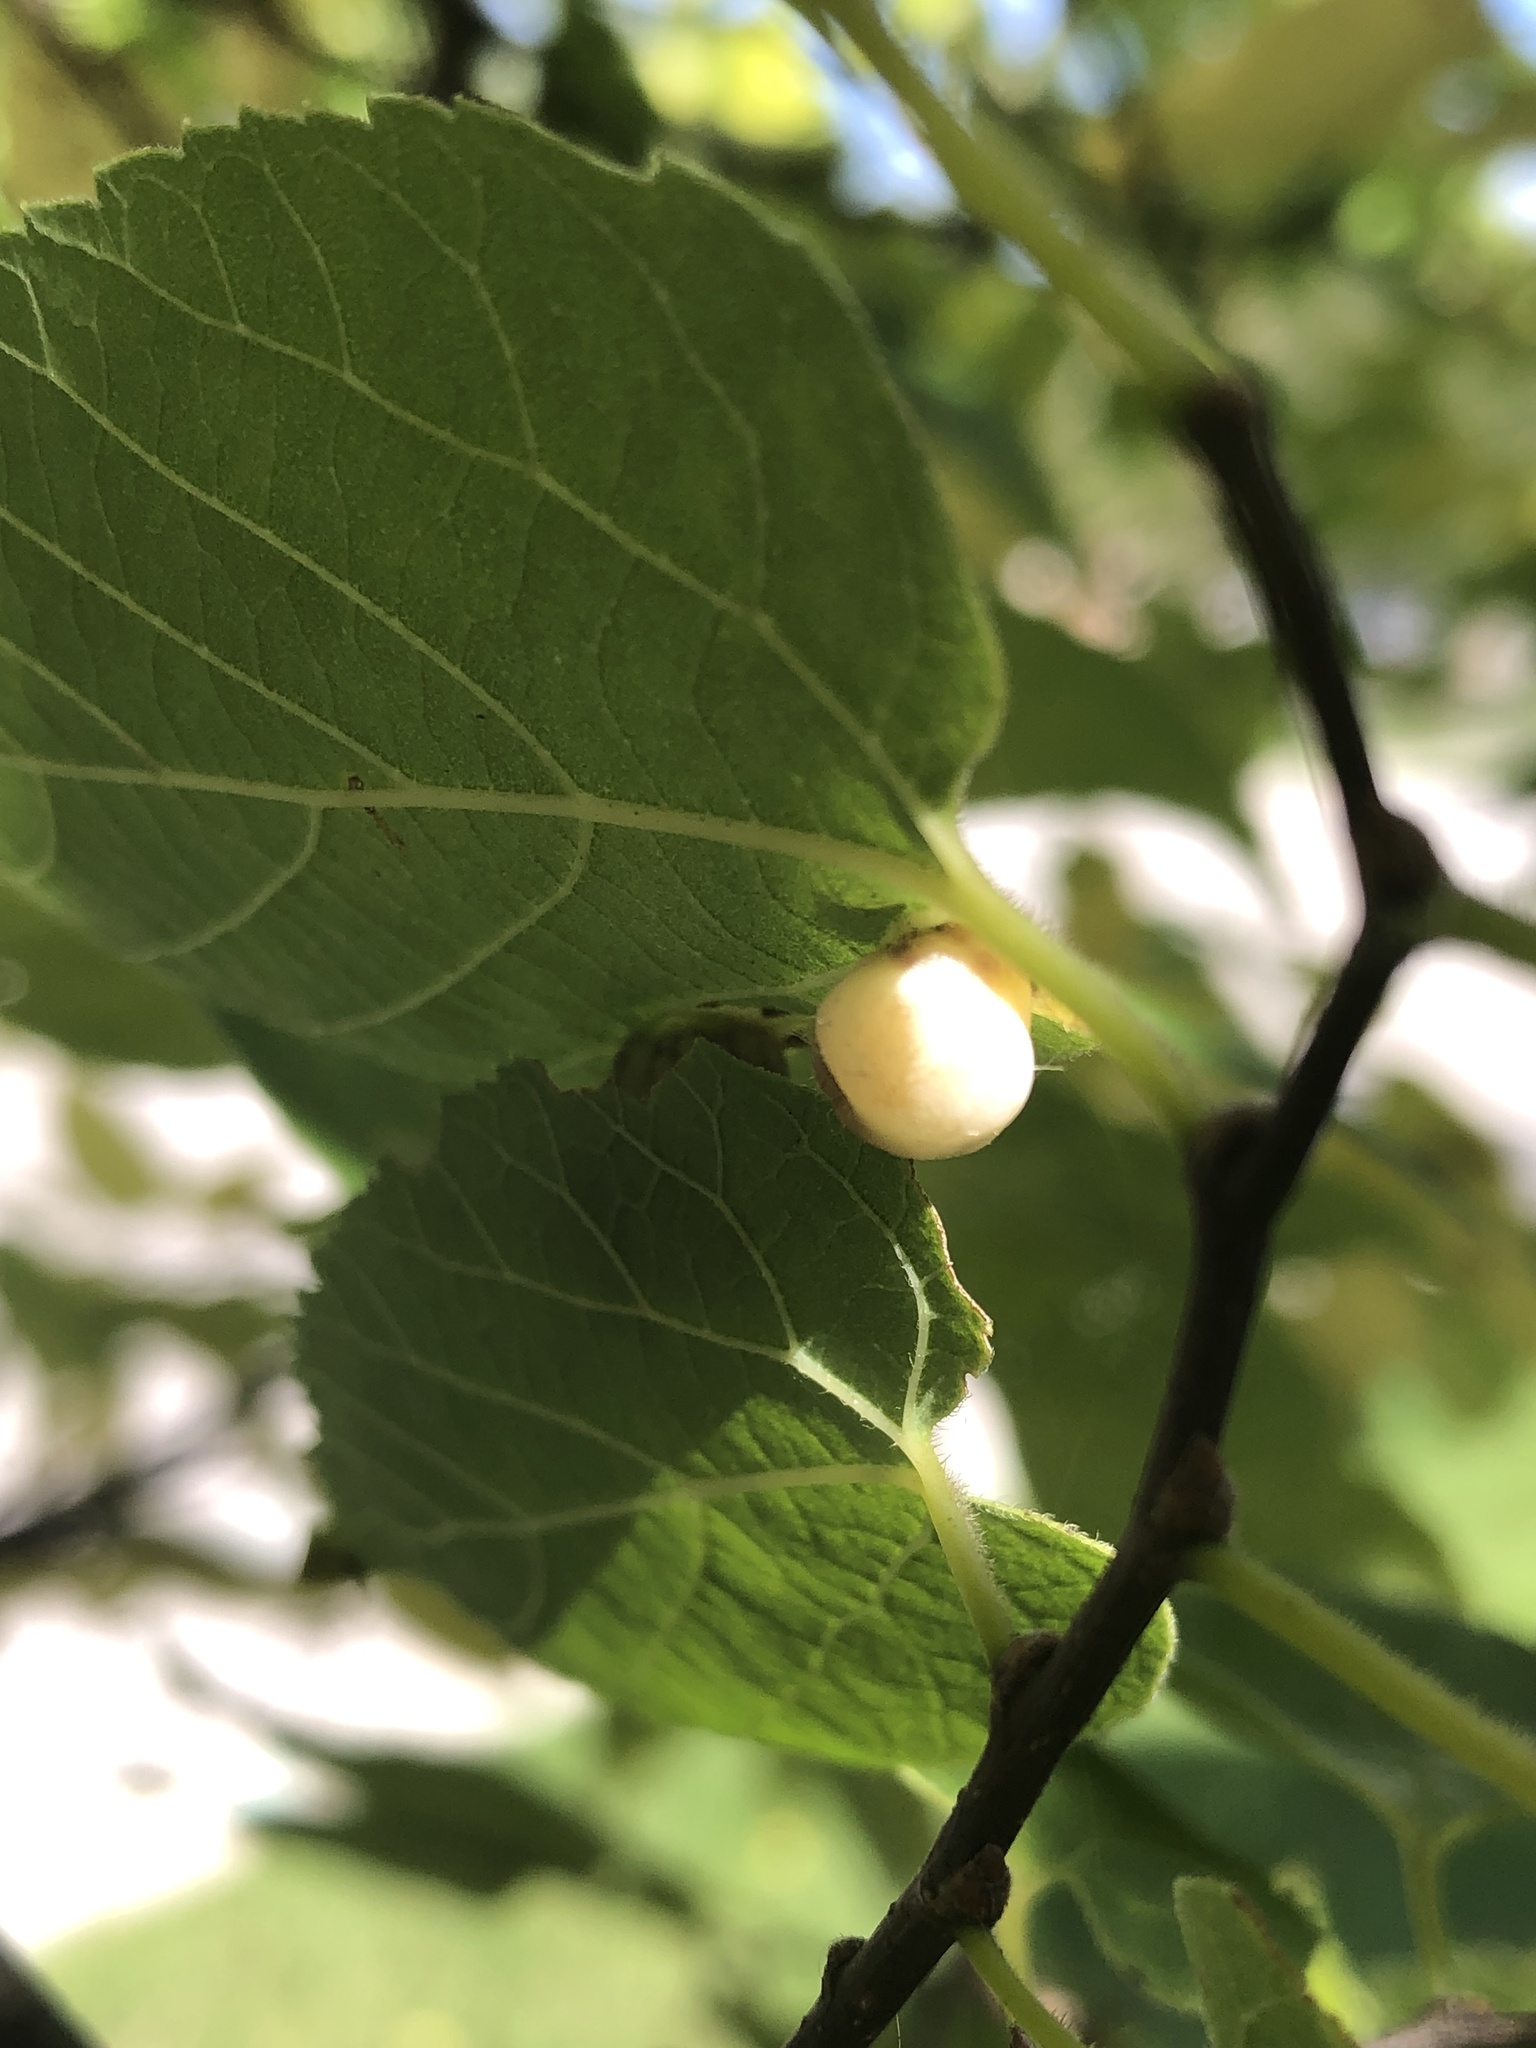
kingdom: Animalia
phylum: Arthropoda
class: Insecta
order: Hemiptera
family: Aphalaridae
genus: Pachypsylla
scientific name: Pachypsylla celtidismamma
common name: Hackberry nipplegall psyllid
